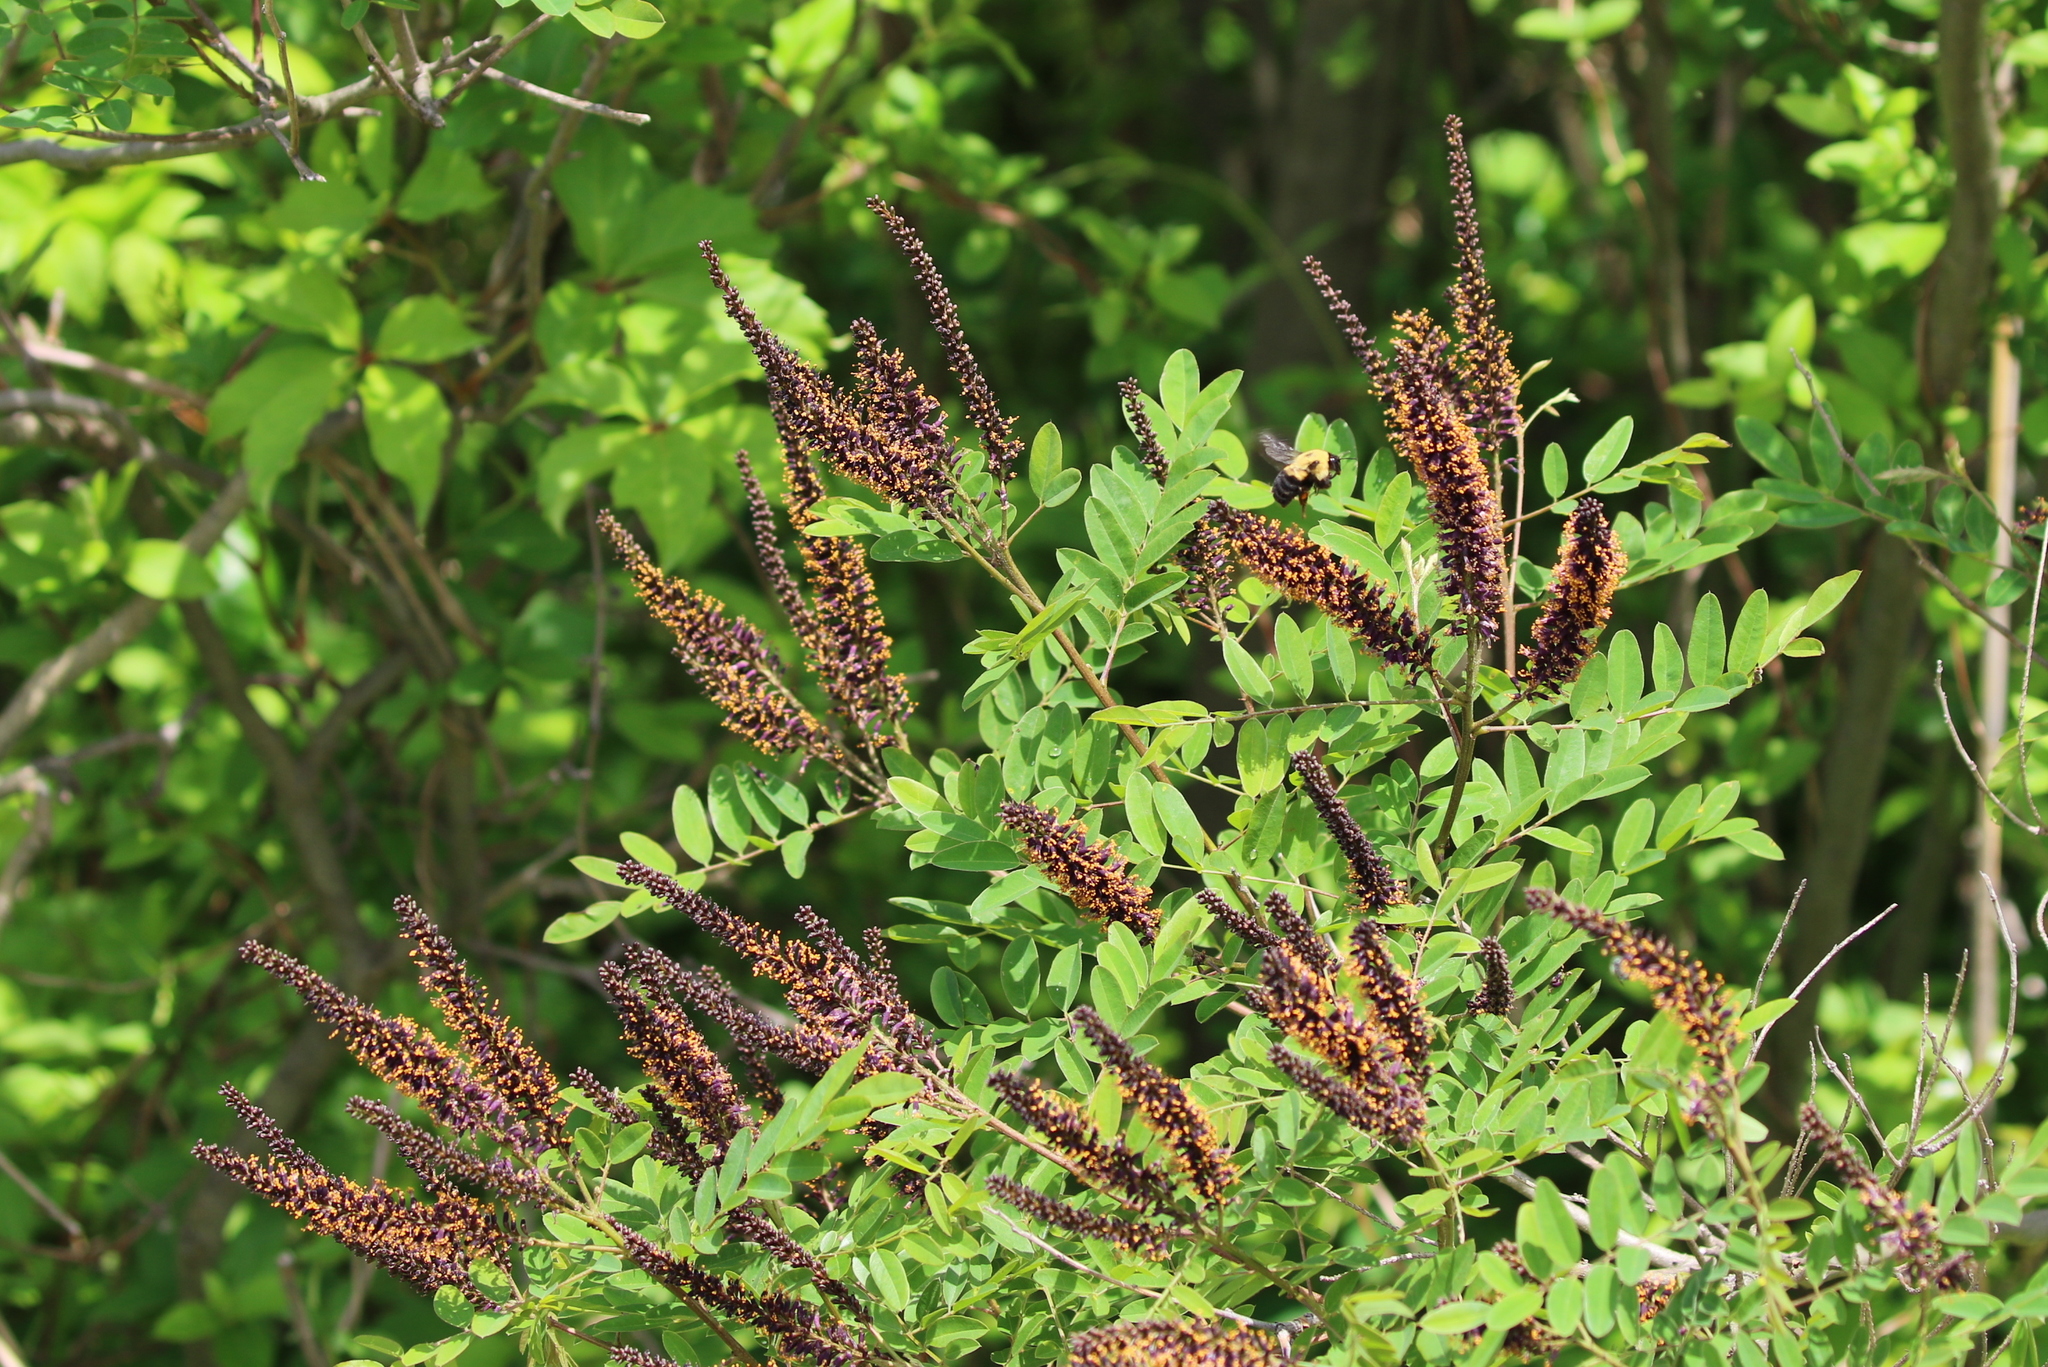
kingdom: Plantae
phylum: Tracheophyta
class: Magnoliopsida
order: Fabales
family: Fabaceae
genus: Amorpha
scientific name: Amorpha fruticosa
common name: False indigo
